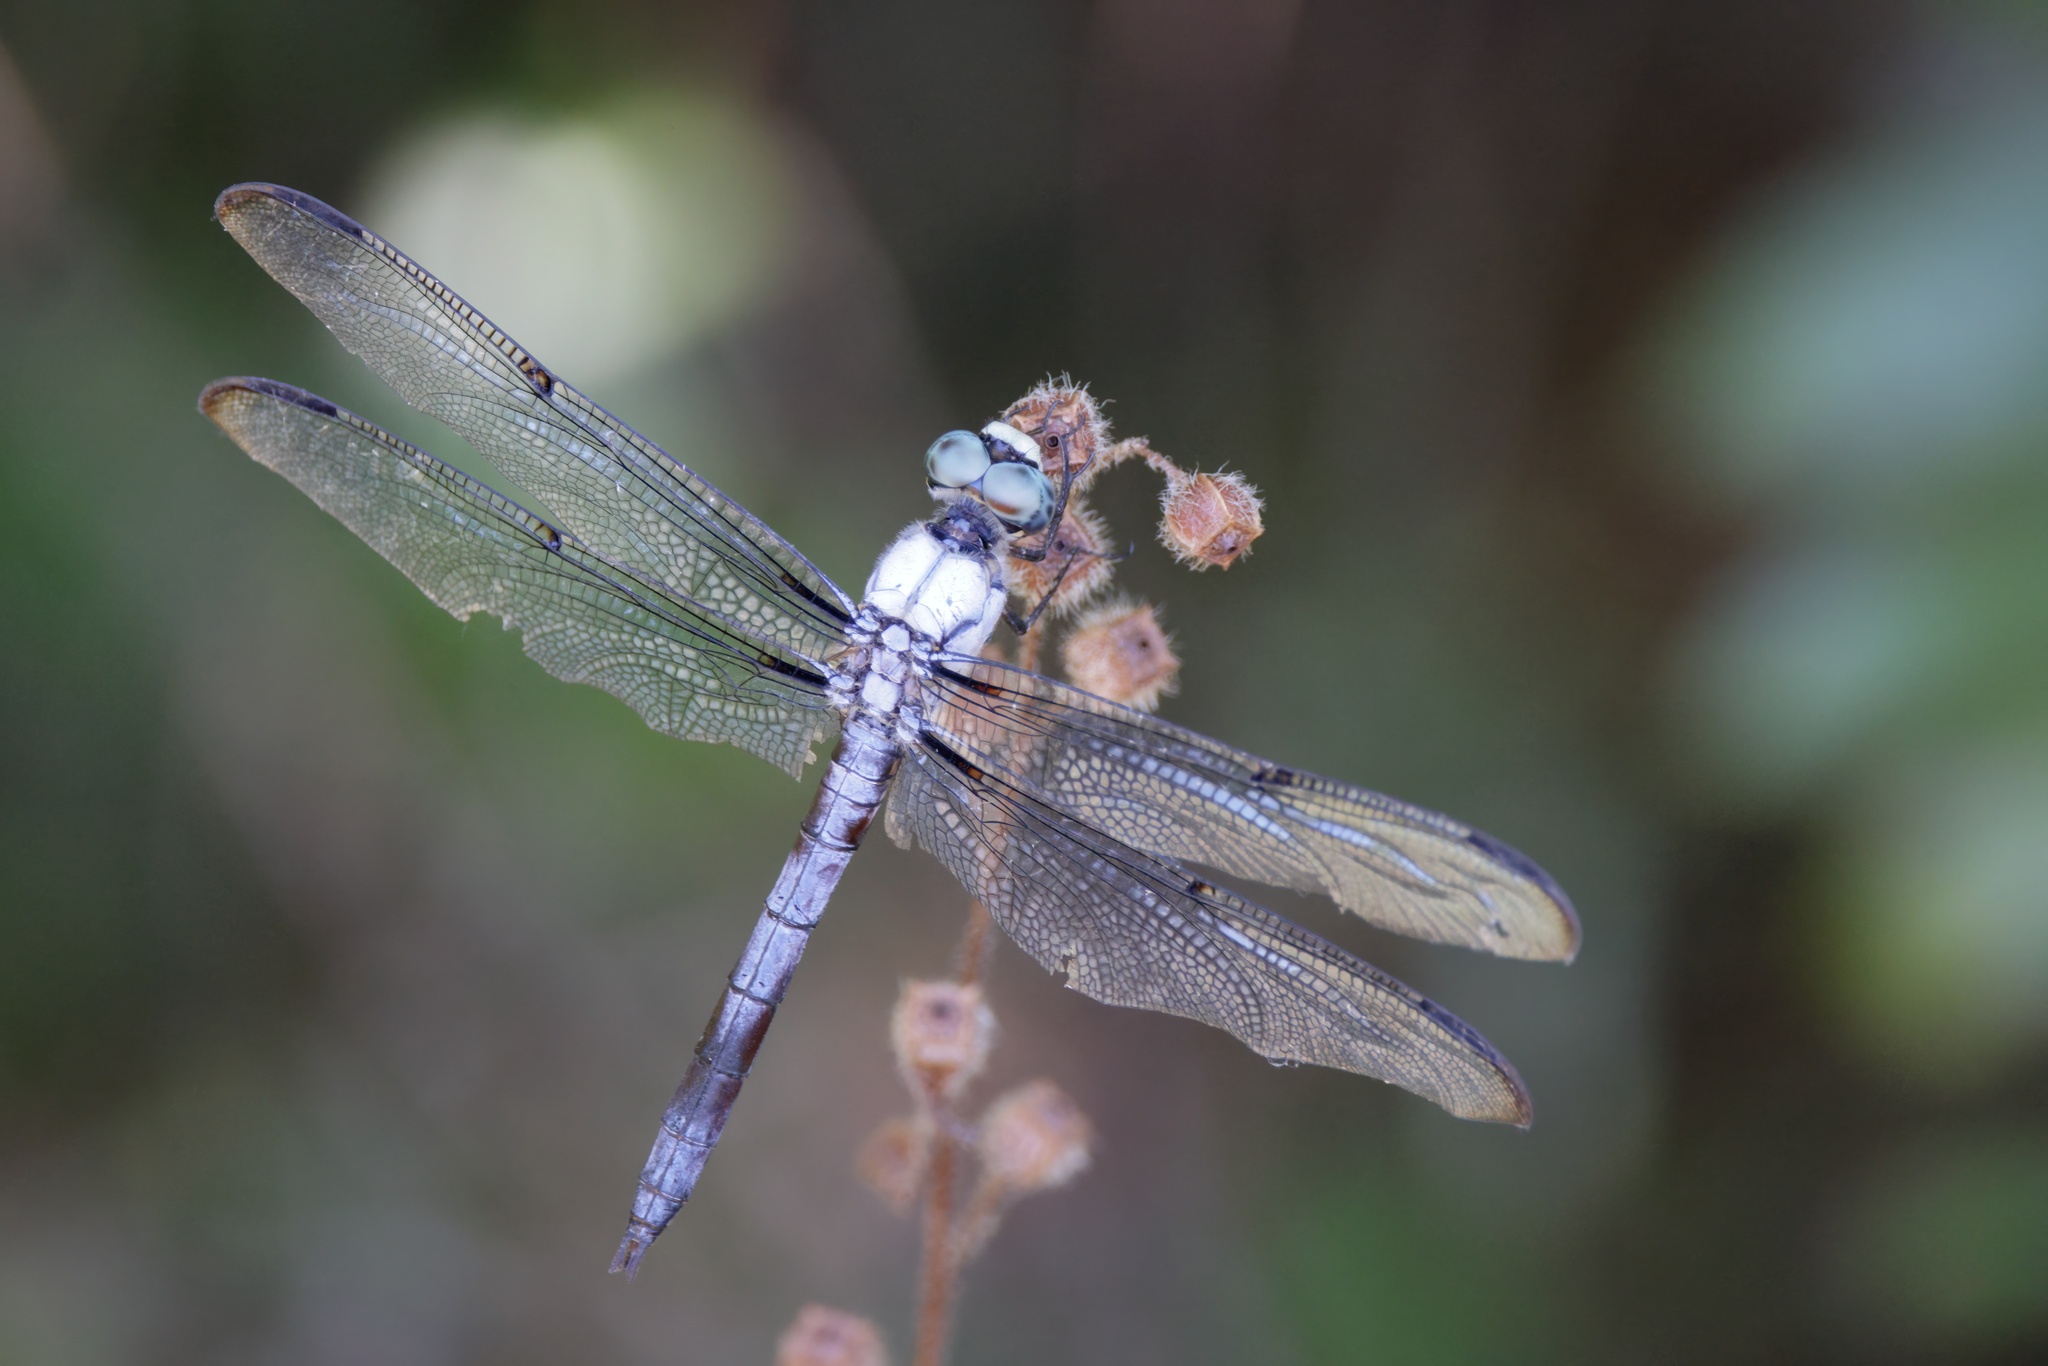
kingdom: Animalia
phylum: Arthropoda
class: Insecta
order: Odonata
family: Libellulidae
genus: Libellula
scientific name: Libellula vibrans
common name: Great blue skimmer
